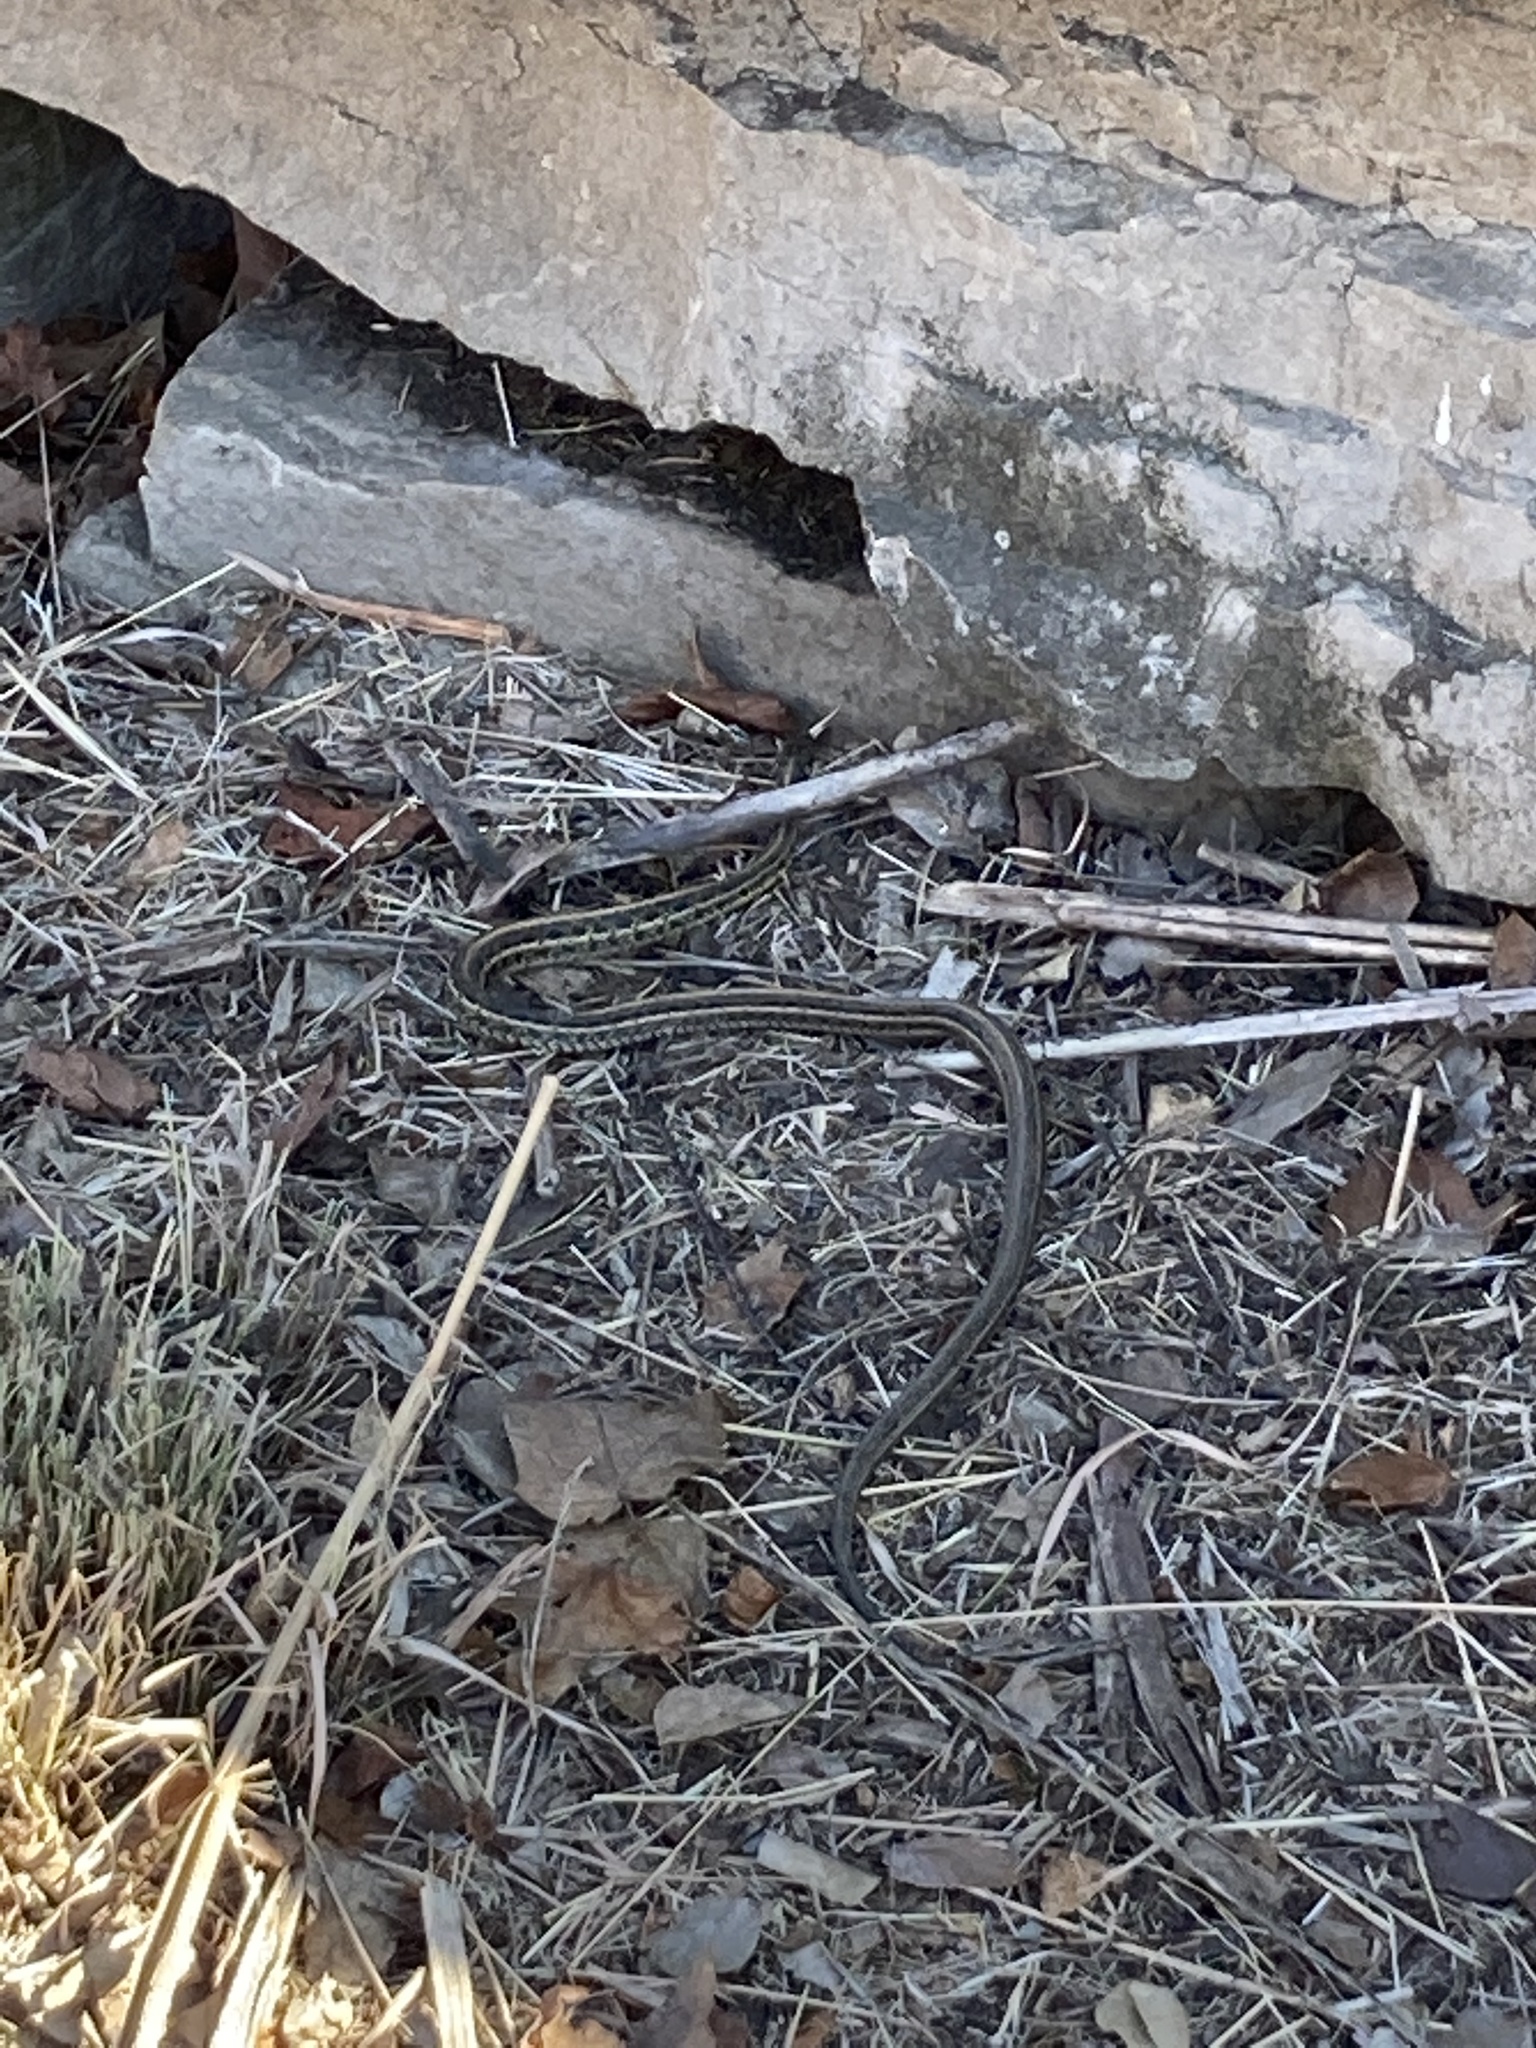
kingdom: Animalia
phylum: Chordata
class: Squamata
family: Colubridae
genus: Thamnophis
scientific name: Thamnophis radix
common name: Plains garter snake
